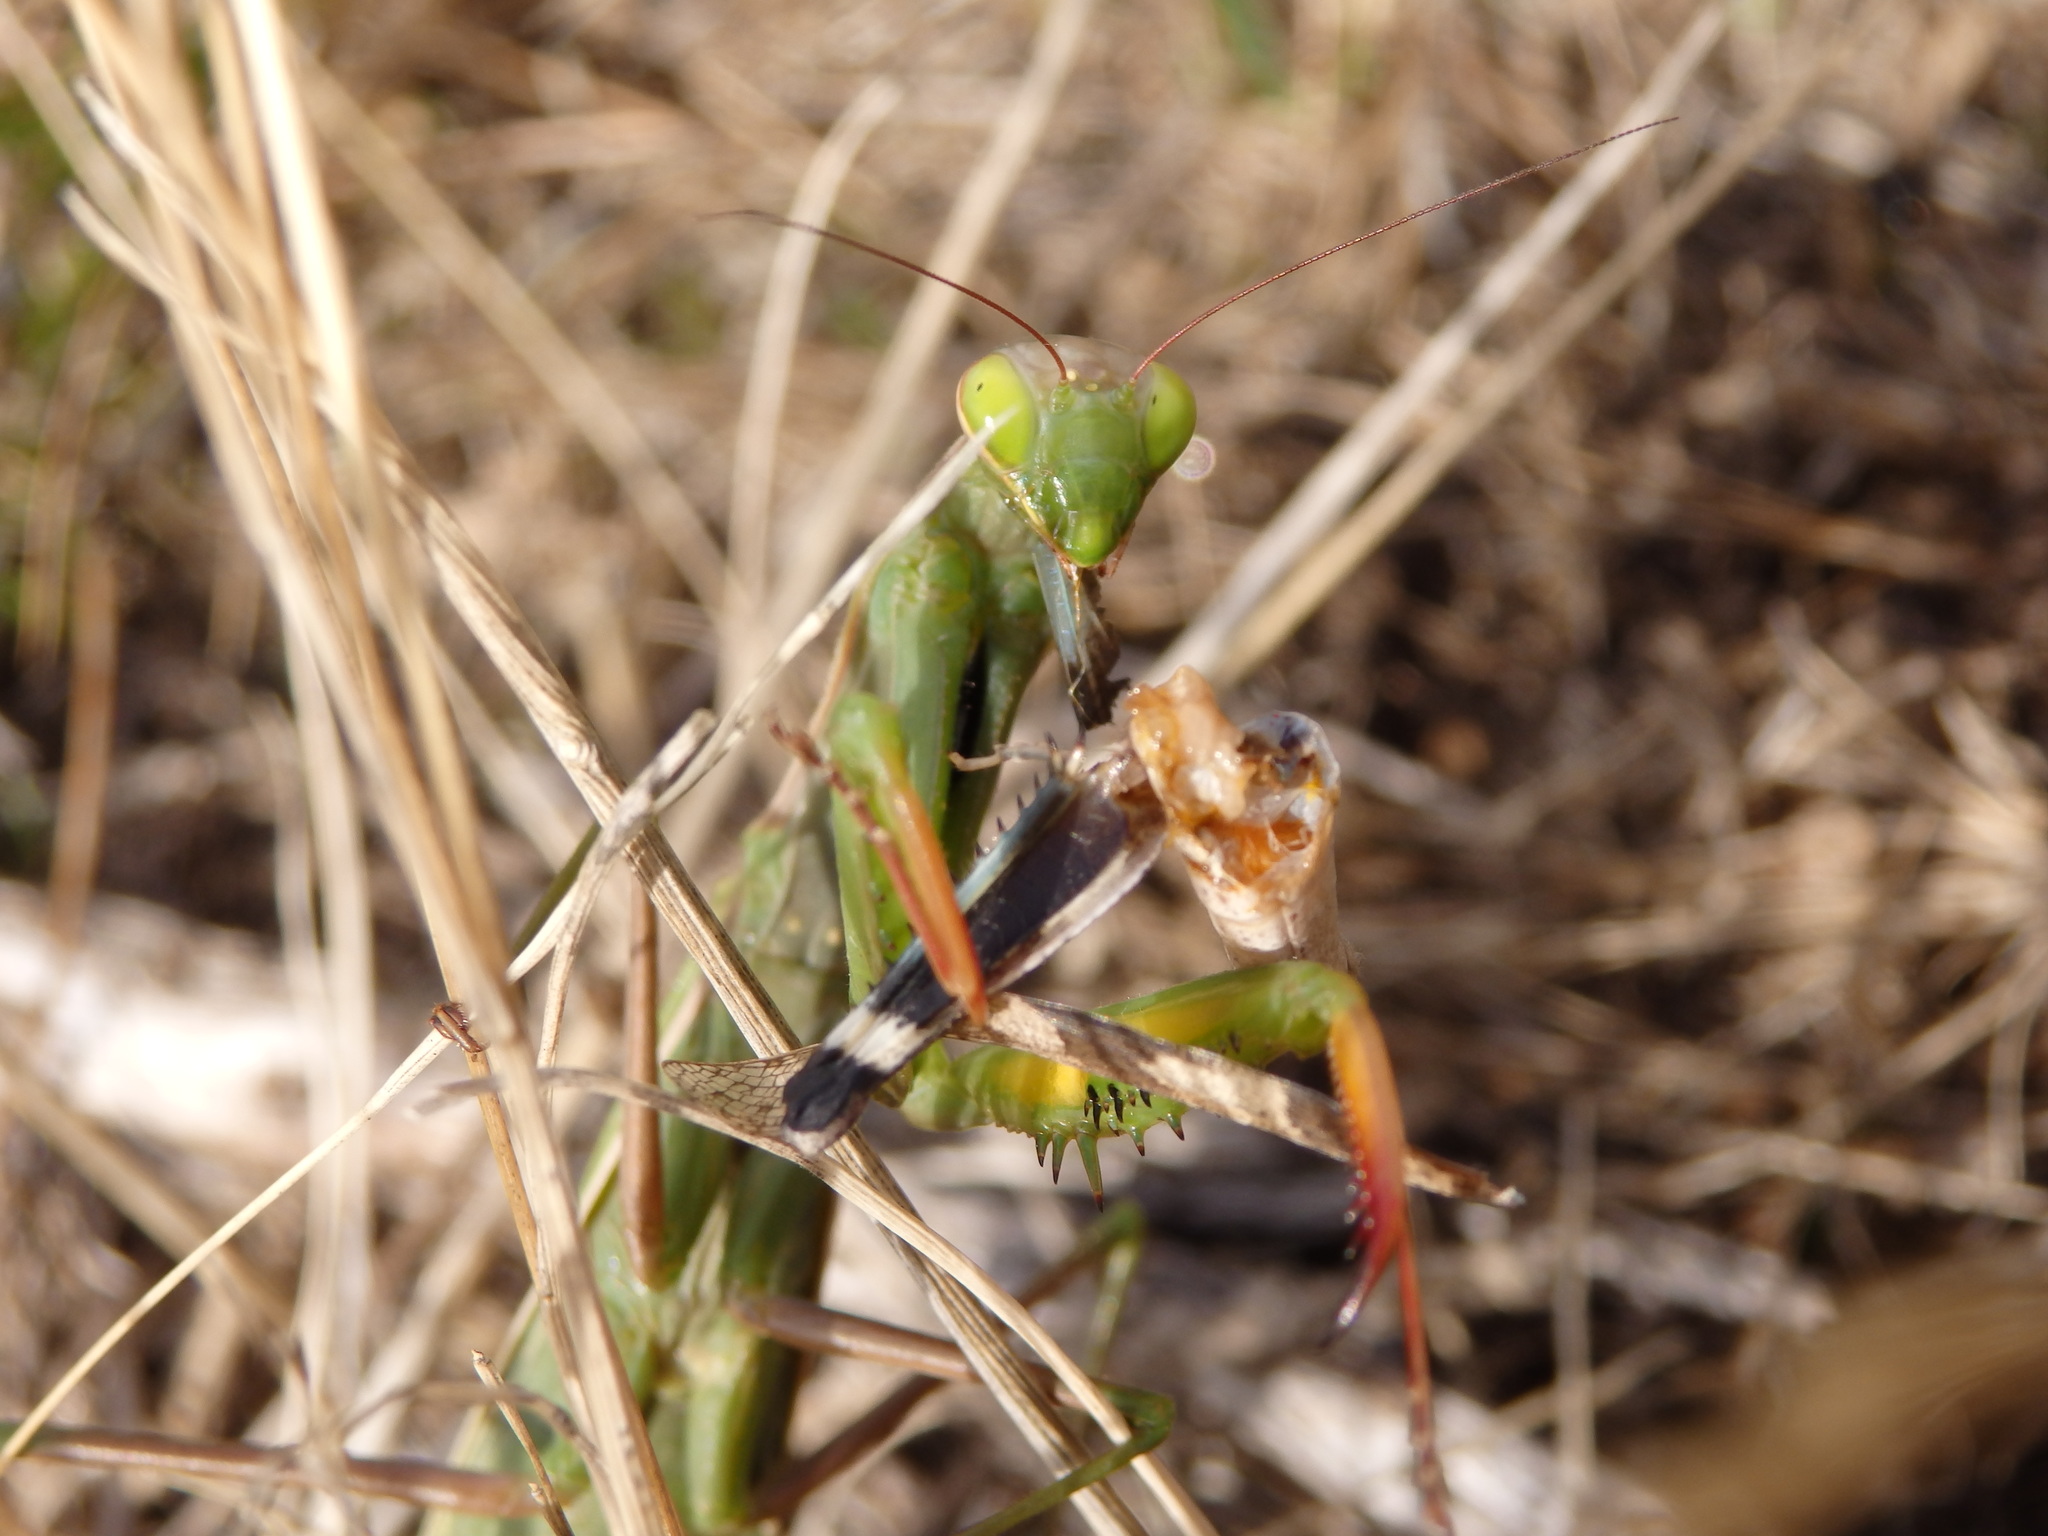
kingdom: Animalia
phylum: Arthropoda
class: Insecta
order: Mantodea
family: Mantidae
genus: Mantis
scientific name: Mantis religiosa
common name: Praying mantis
